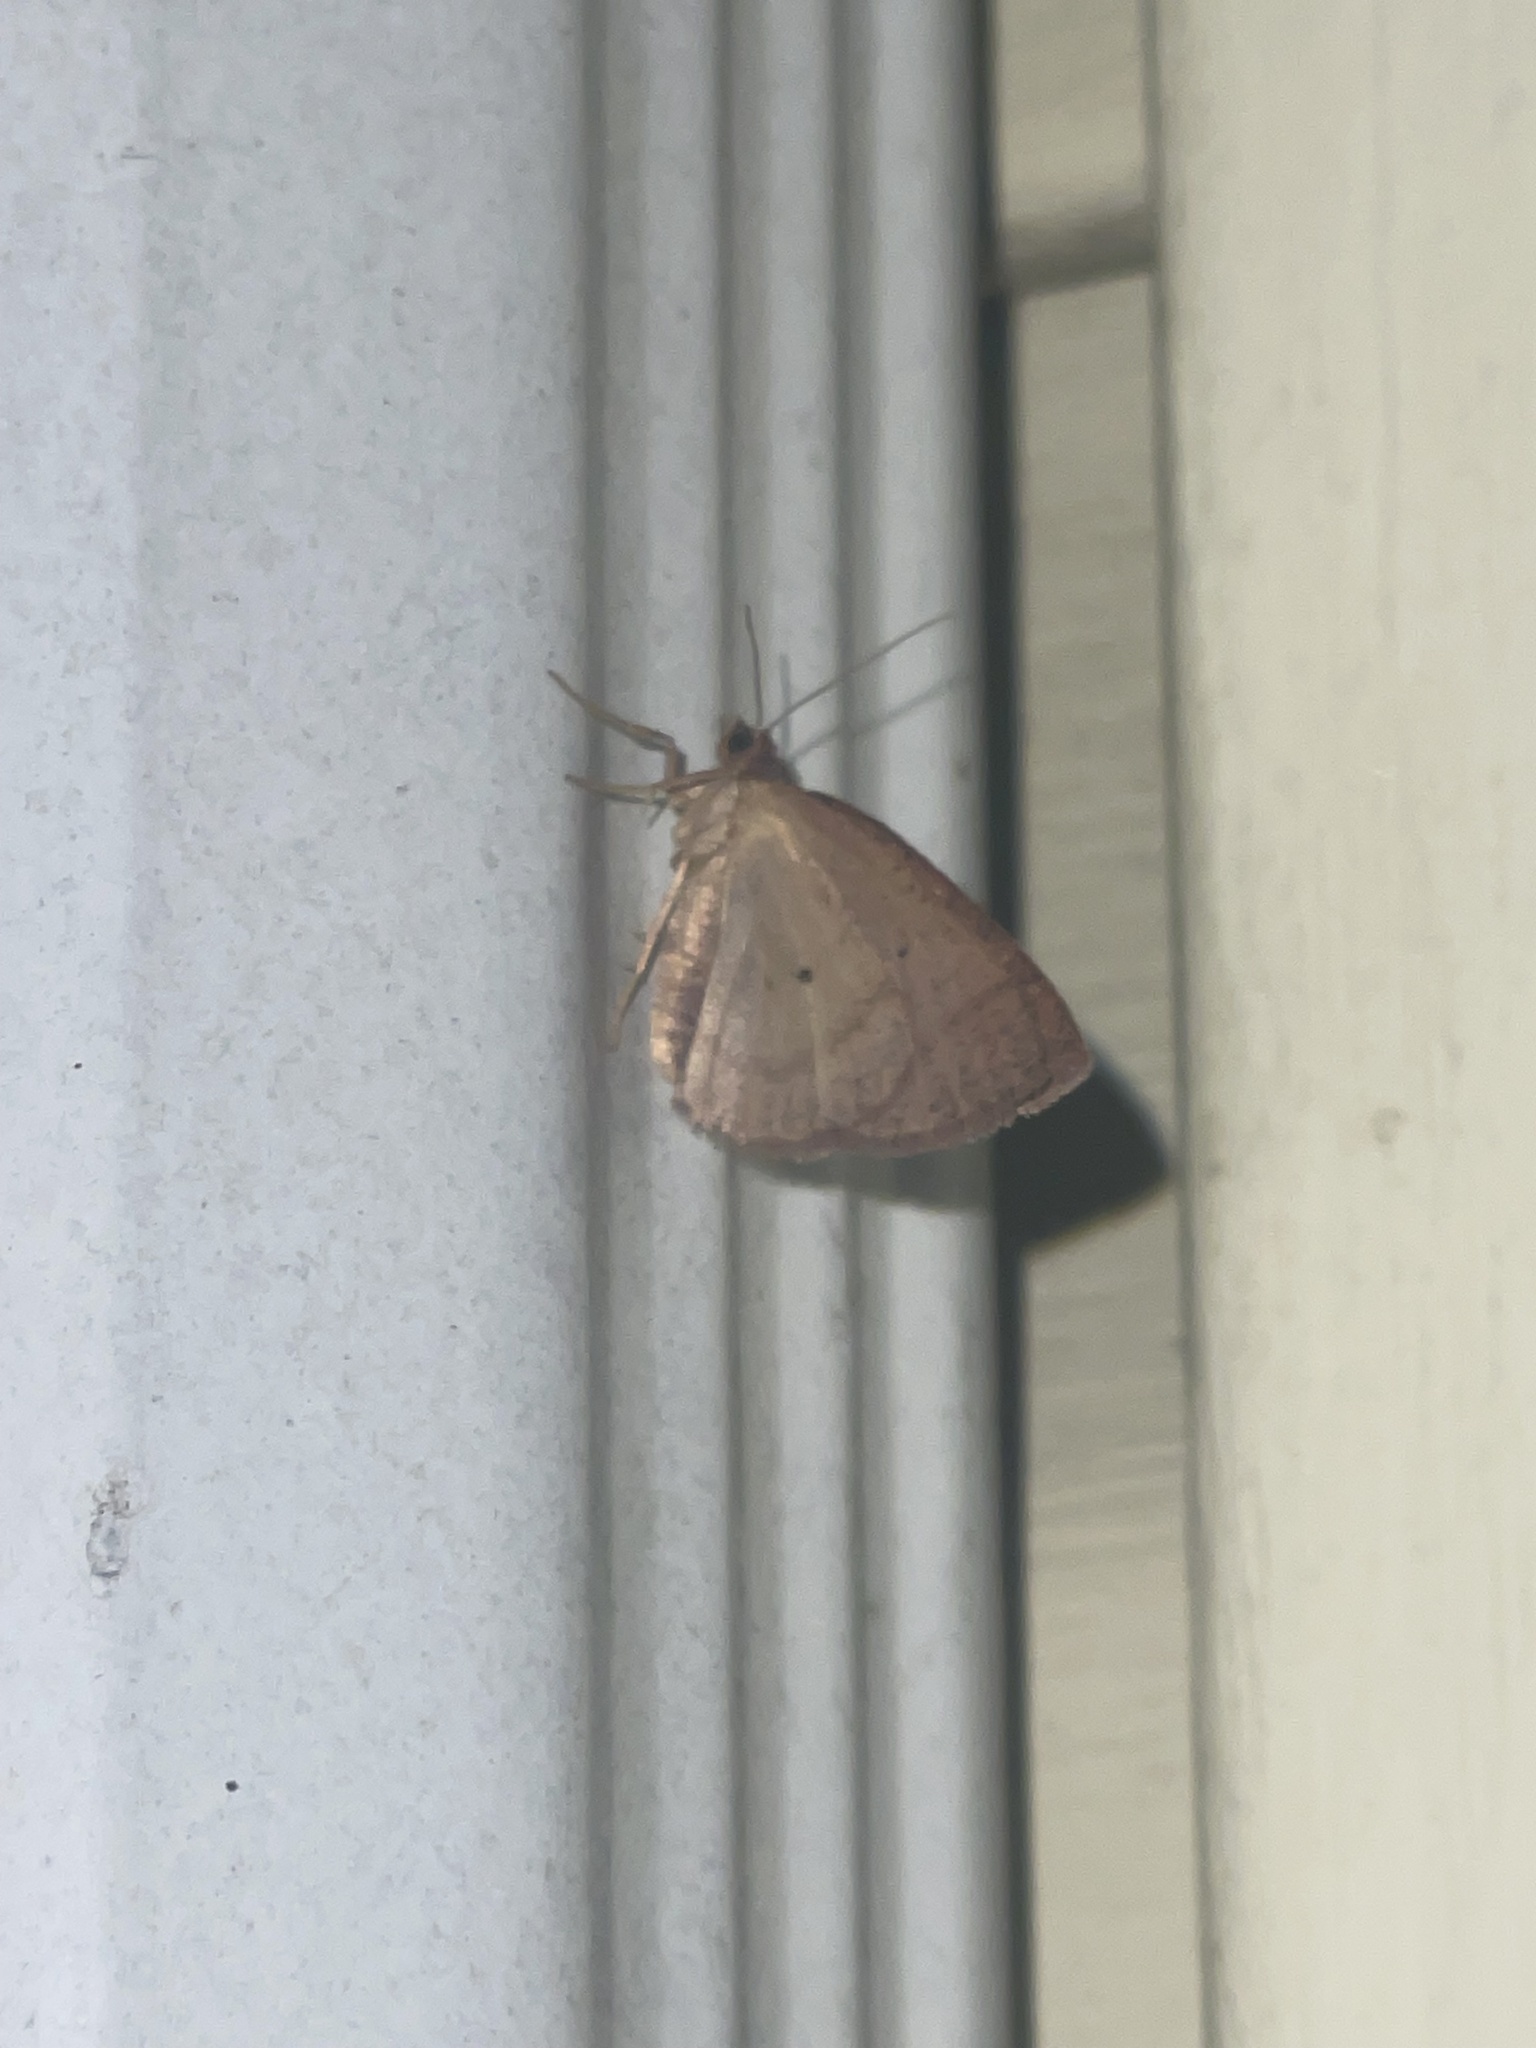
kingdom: Animalia
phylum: Arthropoda
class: Insecta
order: Lepidoptera
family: Geometridae
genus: Ilexia
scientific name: Ilexia intractata
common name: Black-dotted ruddy moth
